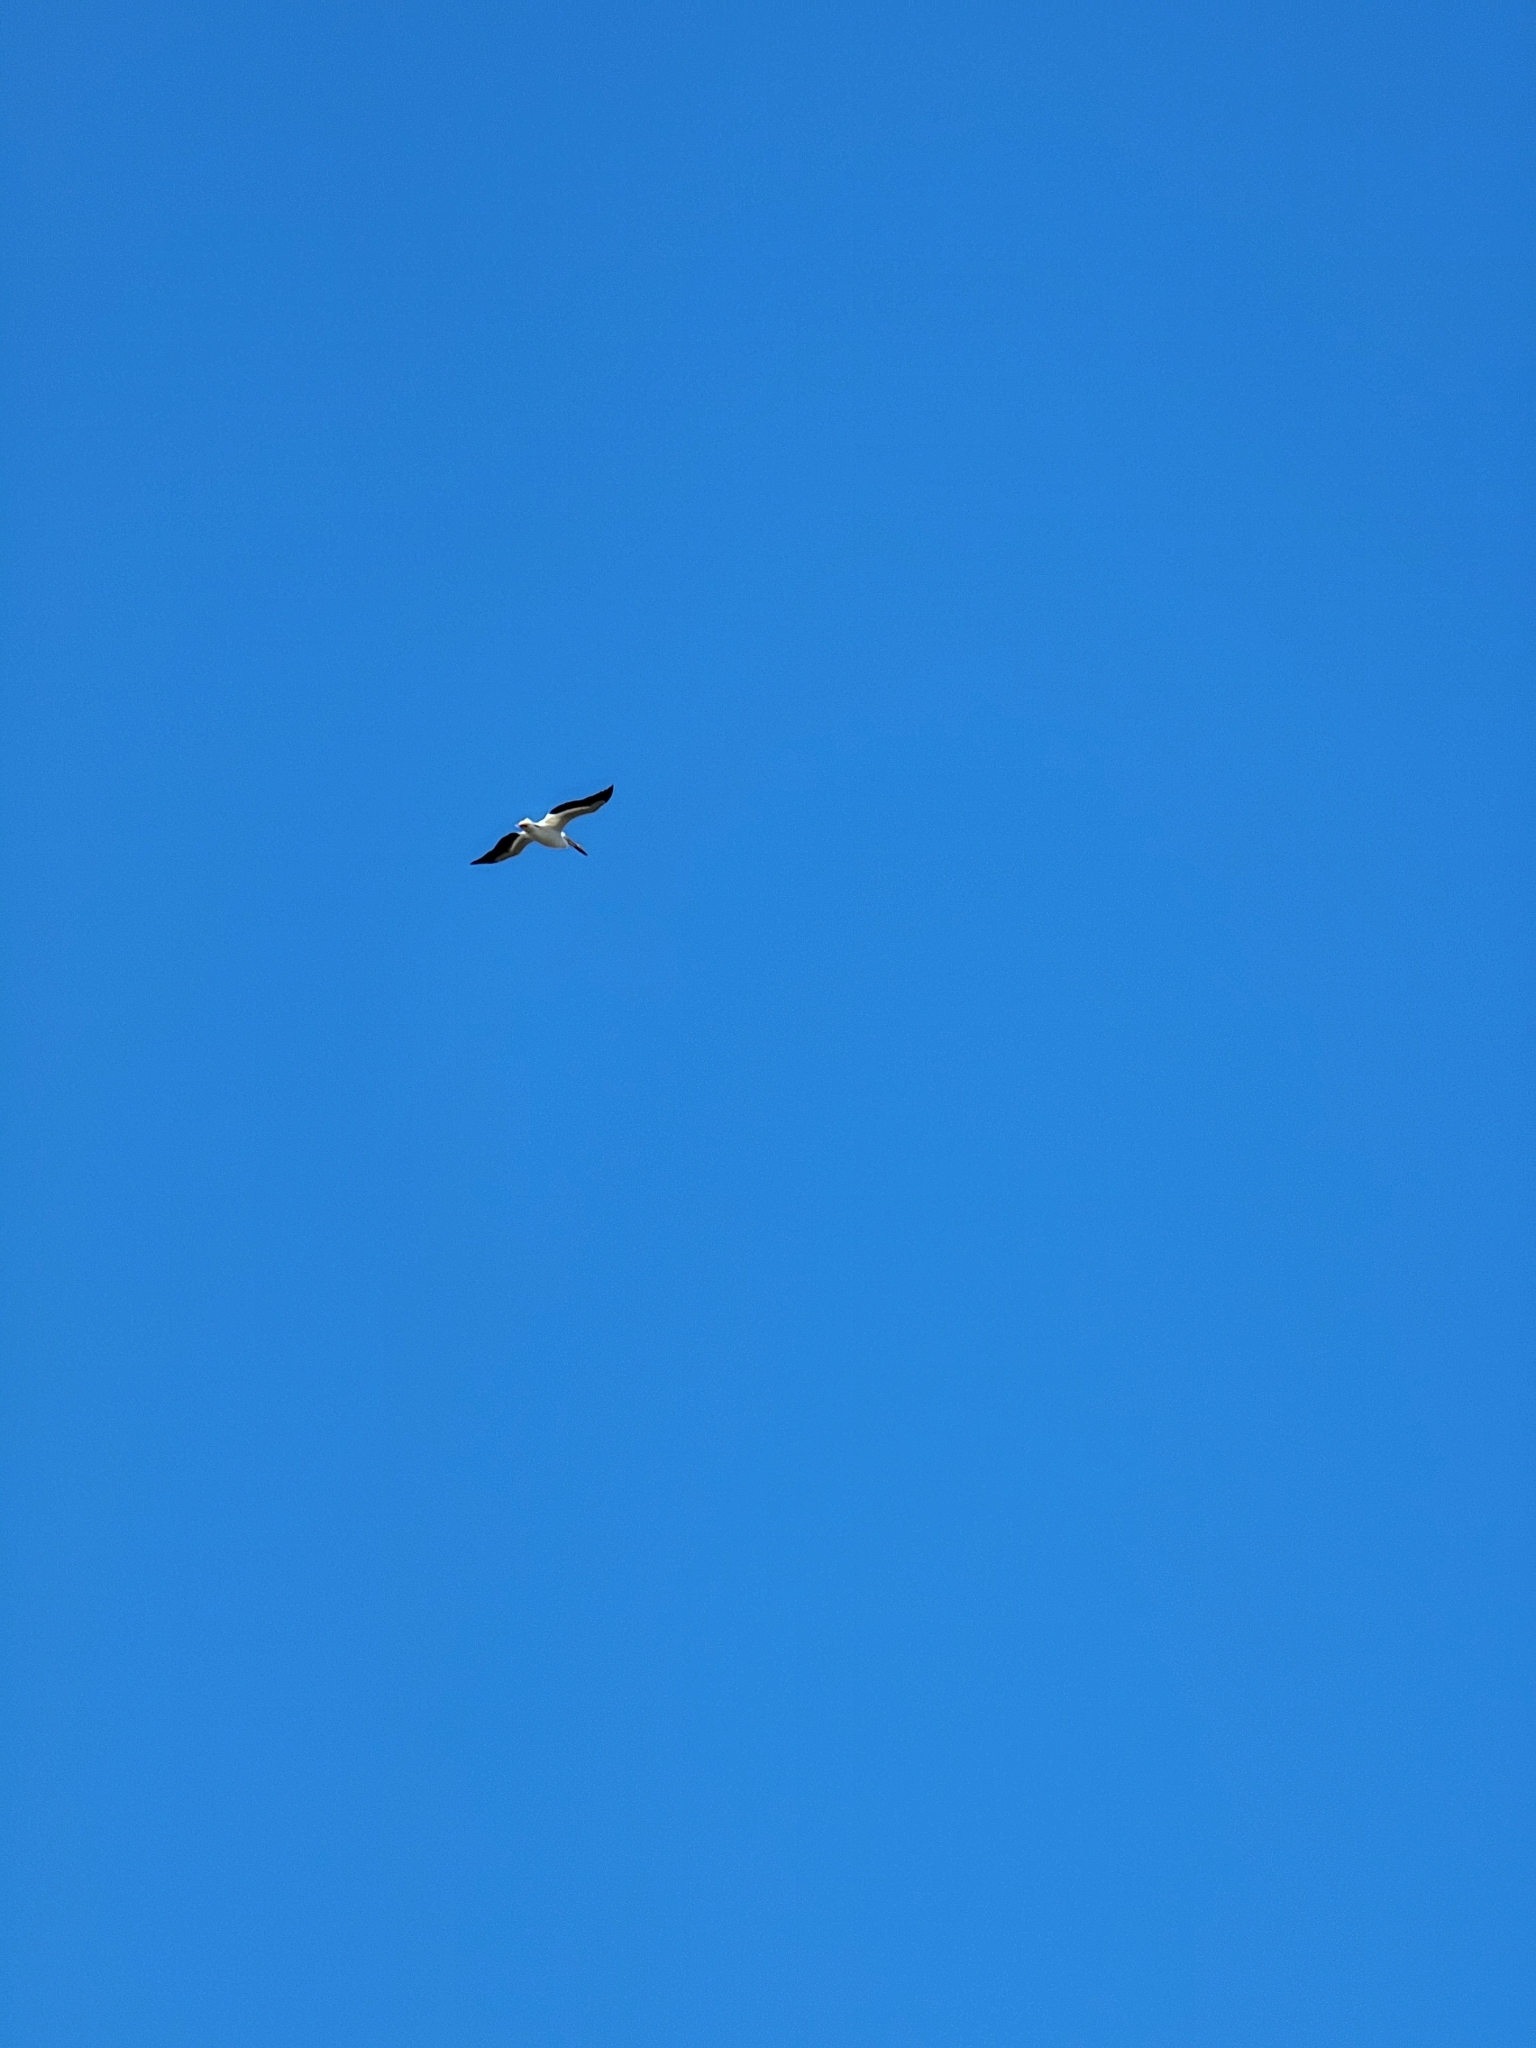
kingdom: Animalia
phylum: Chordata
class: Aves
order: Pelecaniformes
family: Pelecanidae
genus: Pelecanus
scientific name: Pelecanus erythrorhynchos
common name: American white pelican
